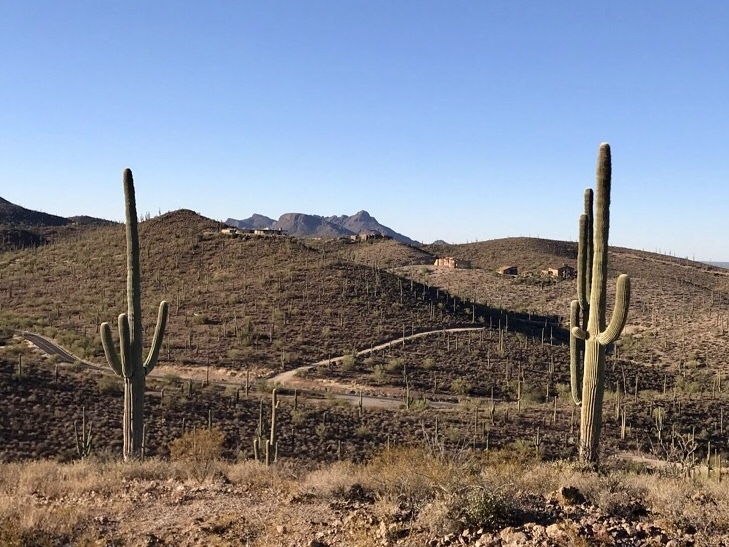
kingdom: Plantae
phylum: Tracheophyta
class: Magnoliopsida
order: Caryophyllales
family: Cactaceae
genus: Carnegiea
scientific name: Carnegiea gigantea
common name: Saguaro
